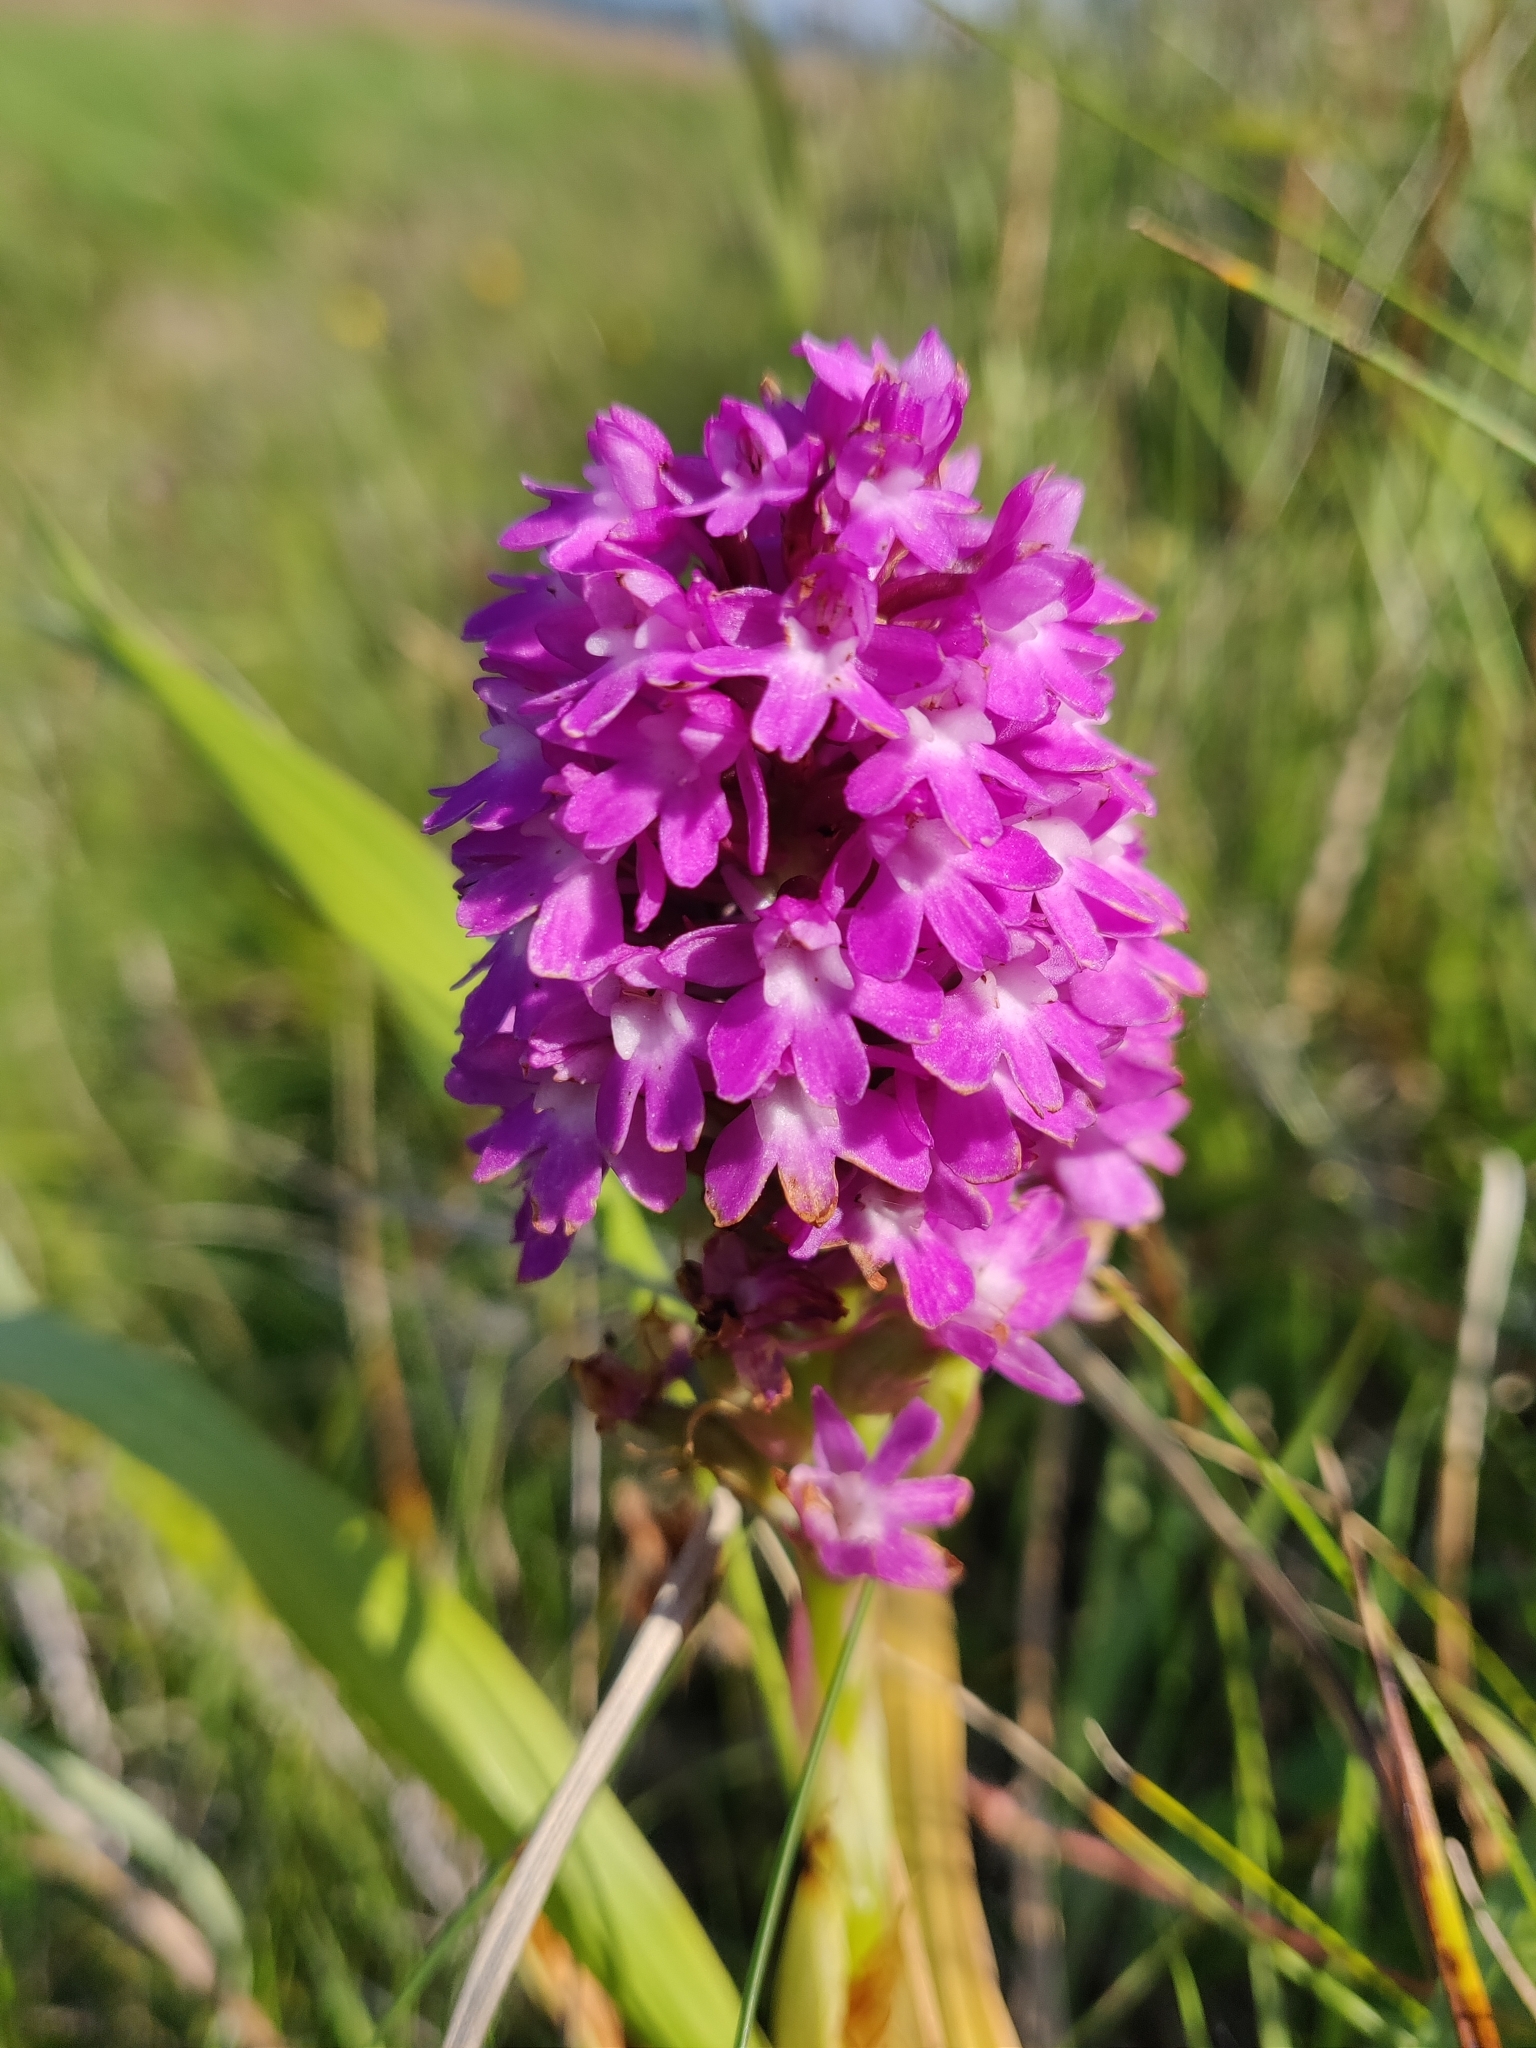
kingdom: Plantae
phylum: Tracheophyta
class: Liliopsida
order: Asparagales
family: Orchidaceae
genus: Anacamptis
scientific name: Anacamptis pyramidalis
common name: Pyramidal orchid
